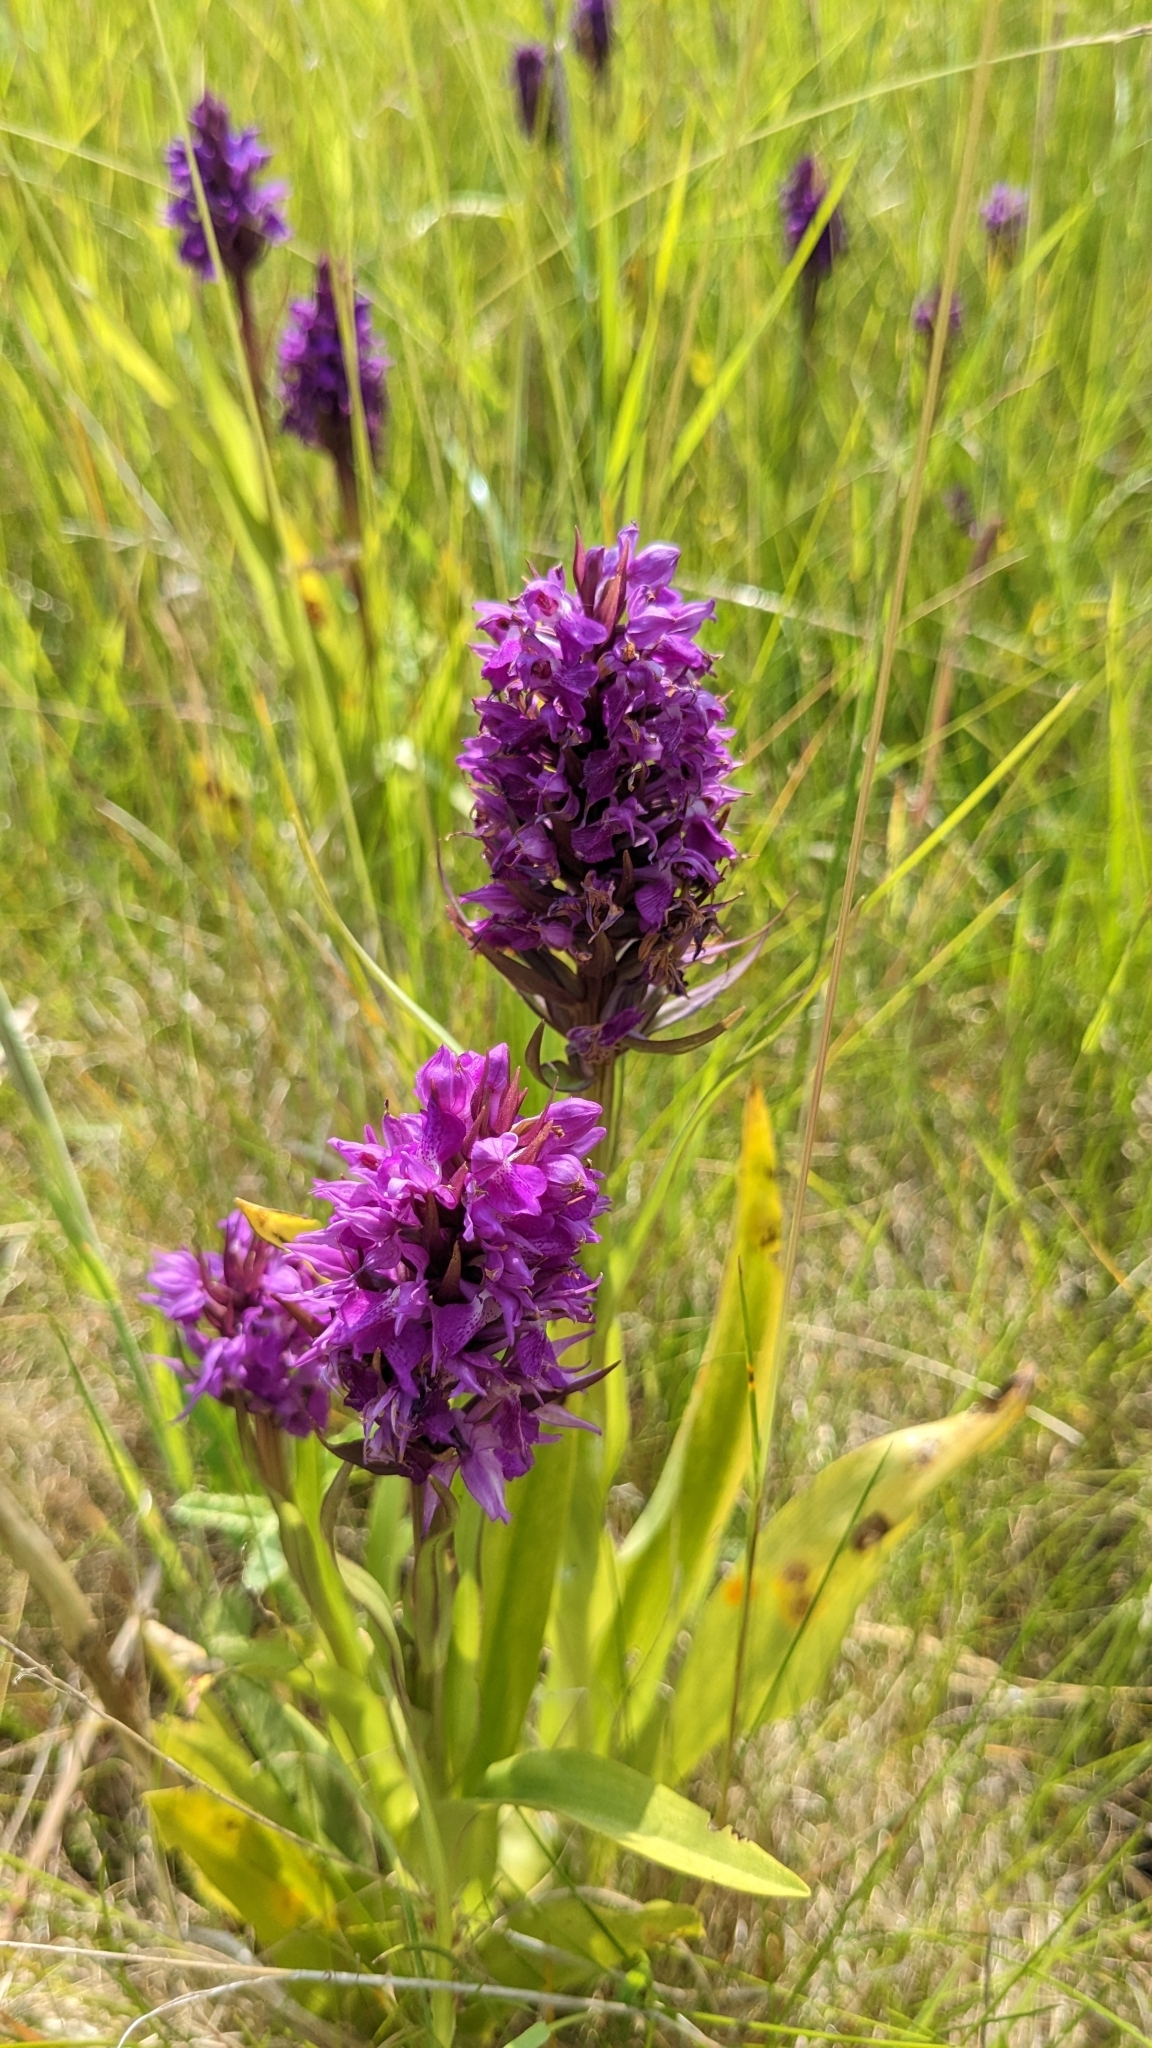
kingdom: Plantae
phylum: Tracheophyta
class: Liliopsida
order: Asparagales
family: Orchidaceae
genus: Dactylorhiza
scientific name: Dactylorhiza majalis
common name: Marsh orchid
